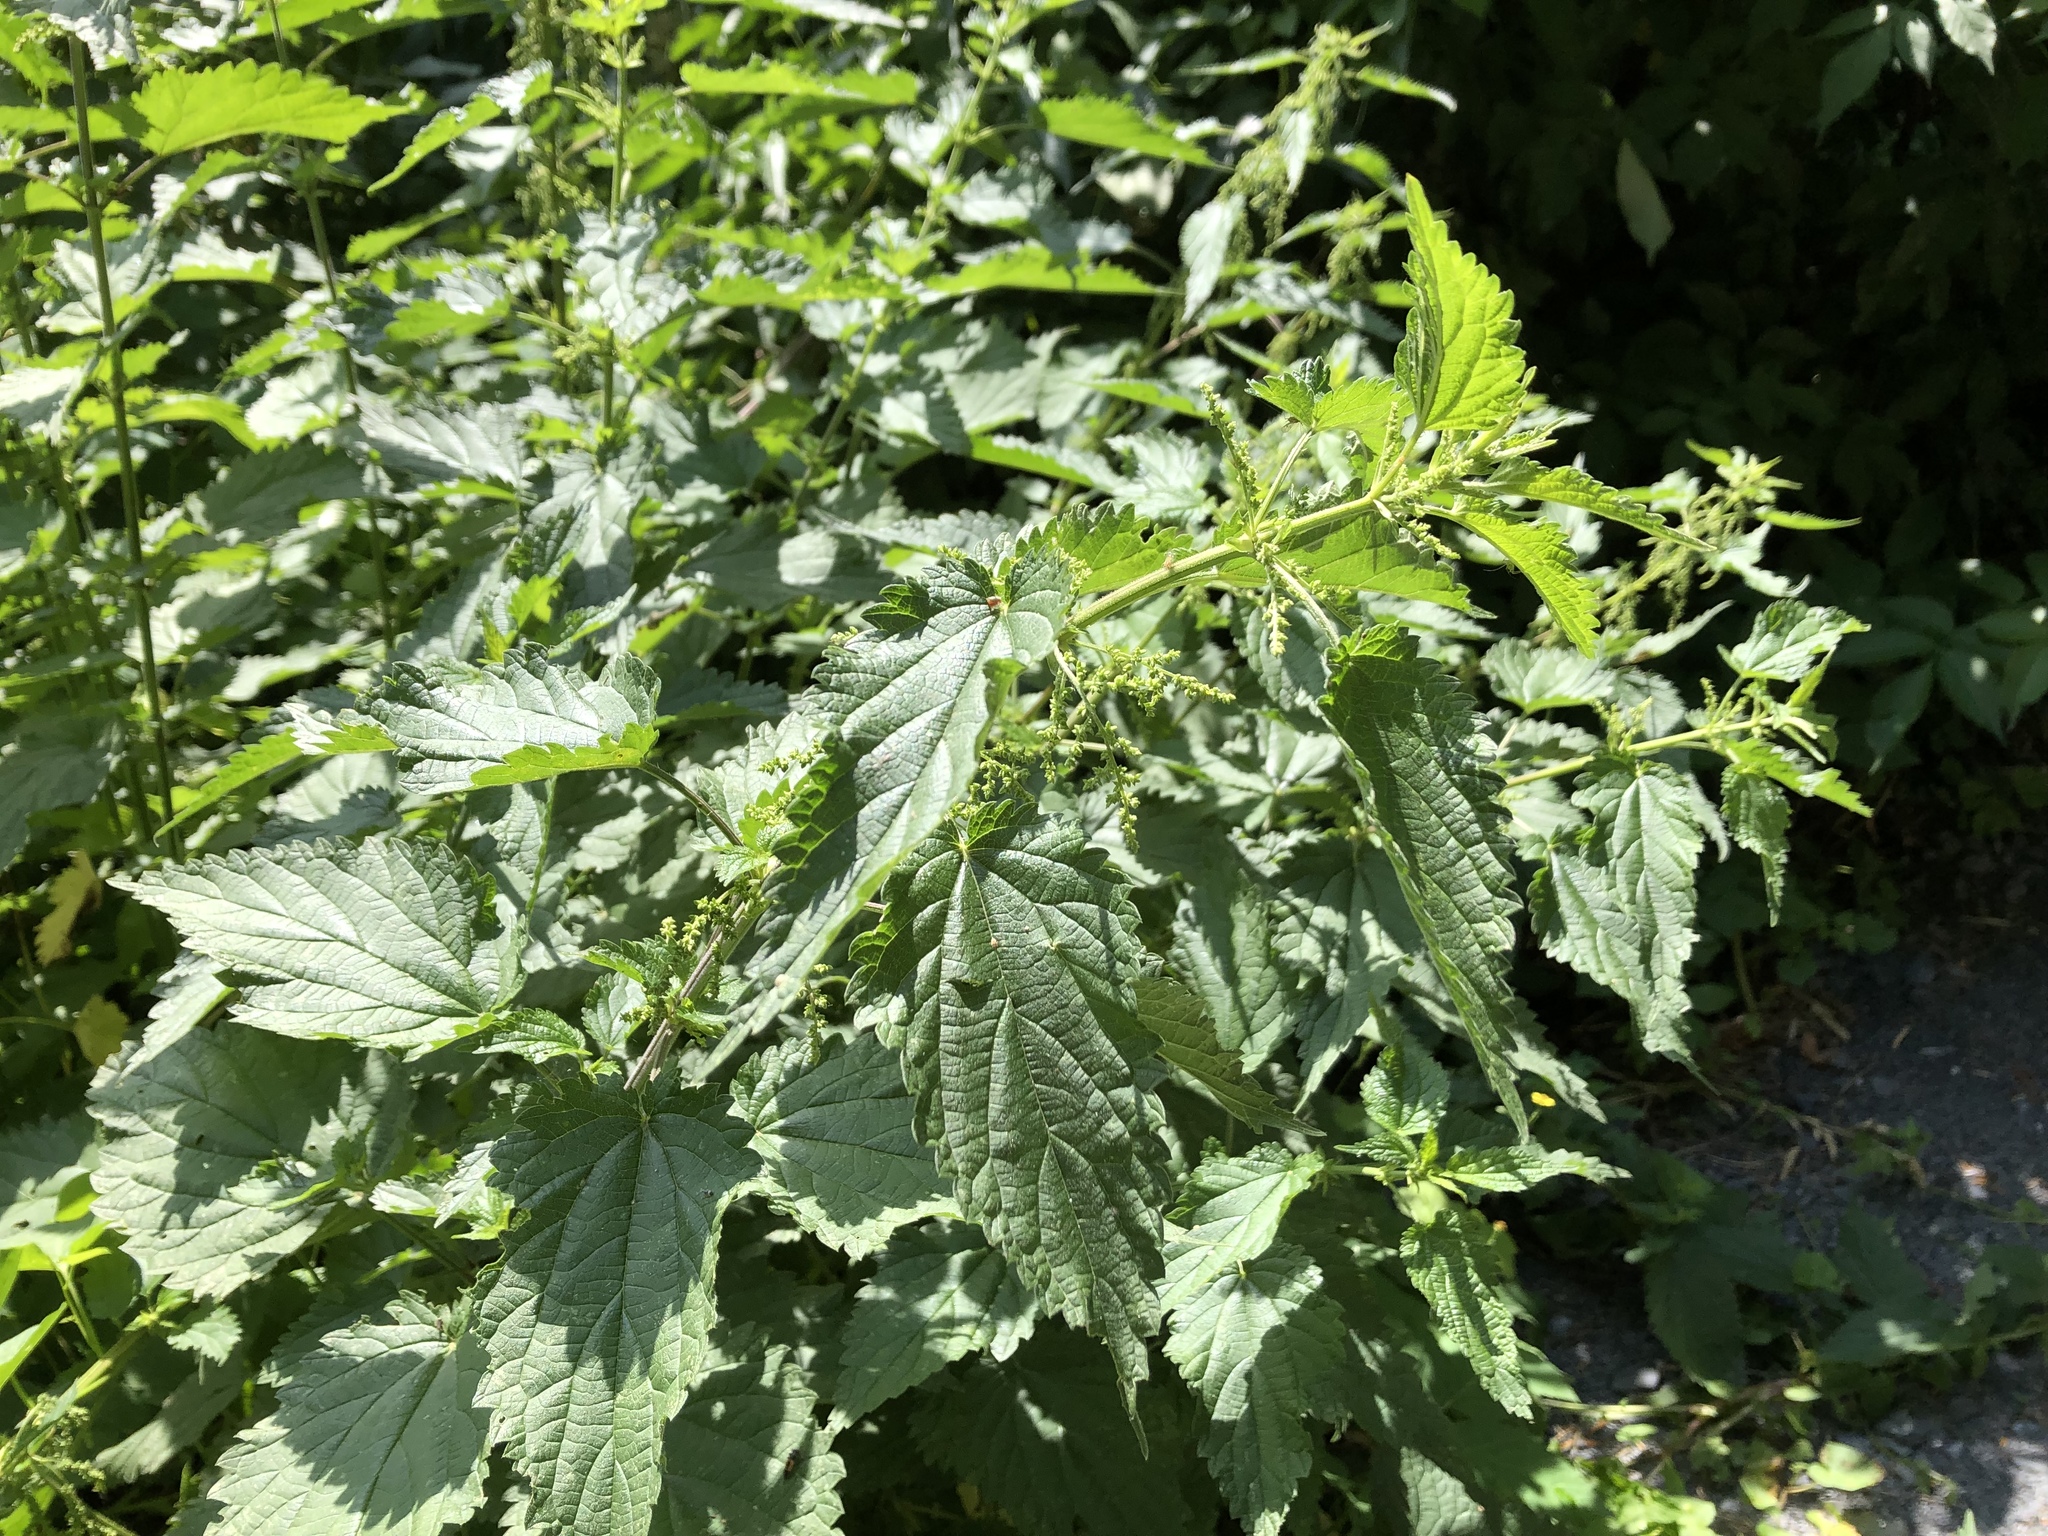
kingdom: Plantae
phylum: Tracheophyta
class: Magnoliopsida
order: Rosales
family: Urticaceae
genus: Urtica
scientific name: Urtica dioica
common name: Common nettle
